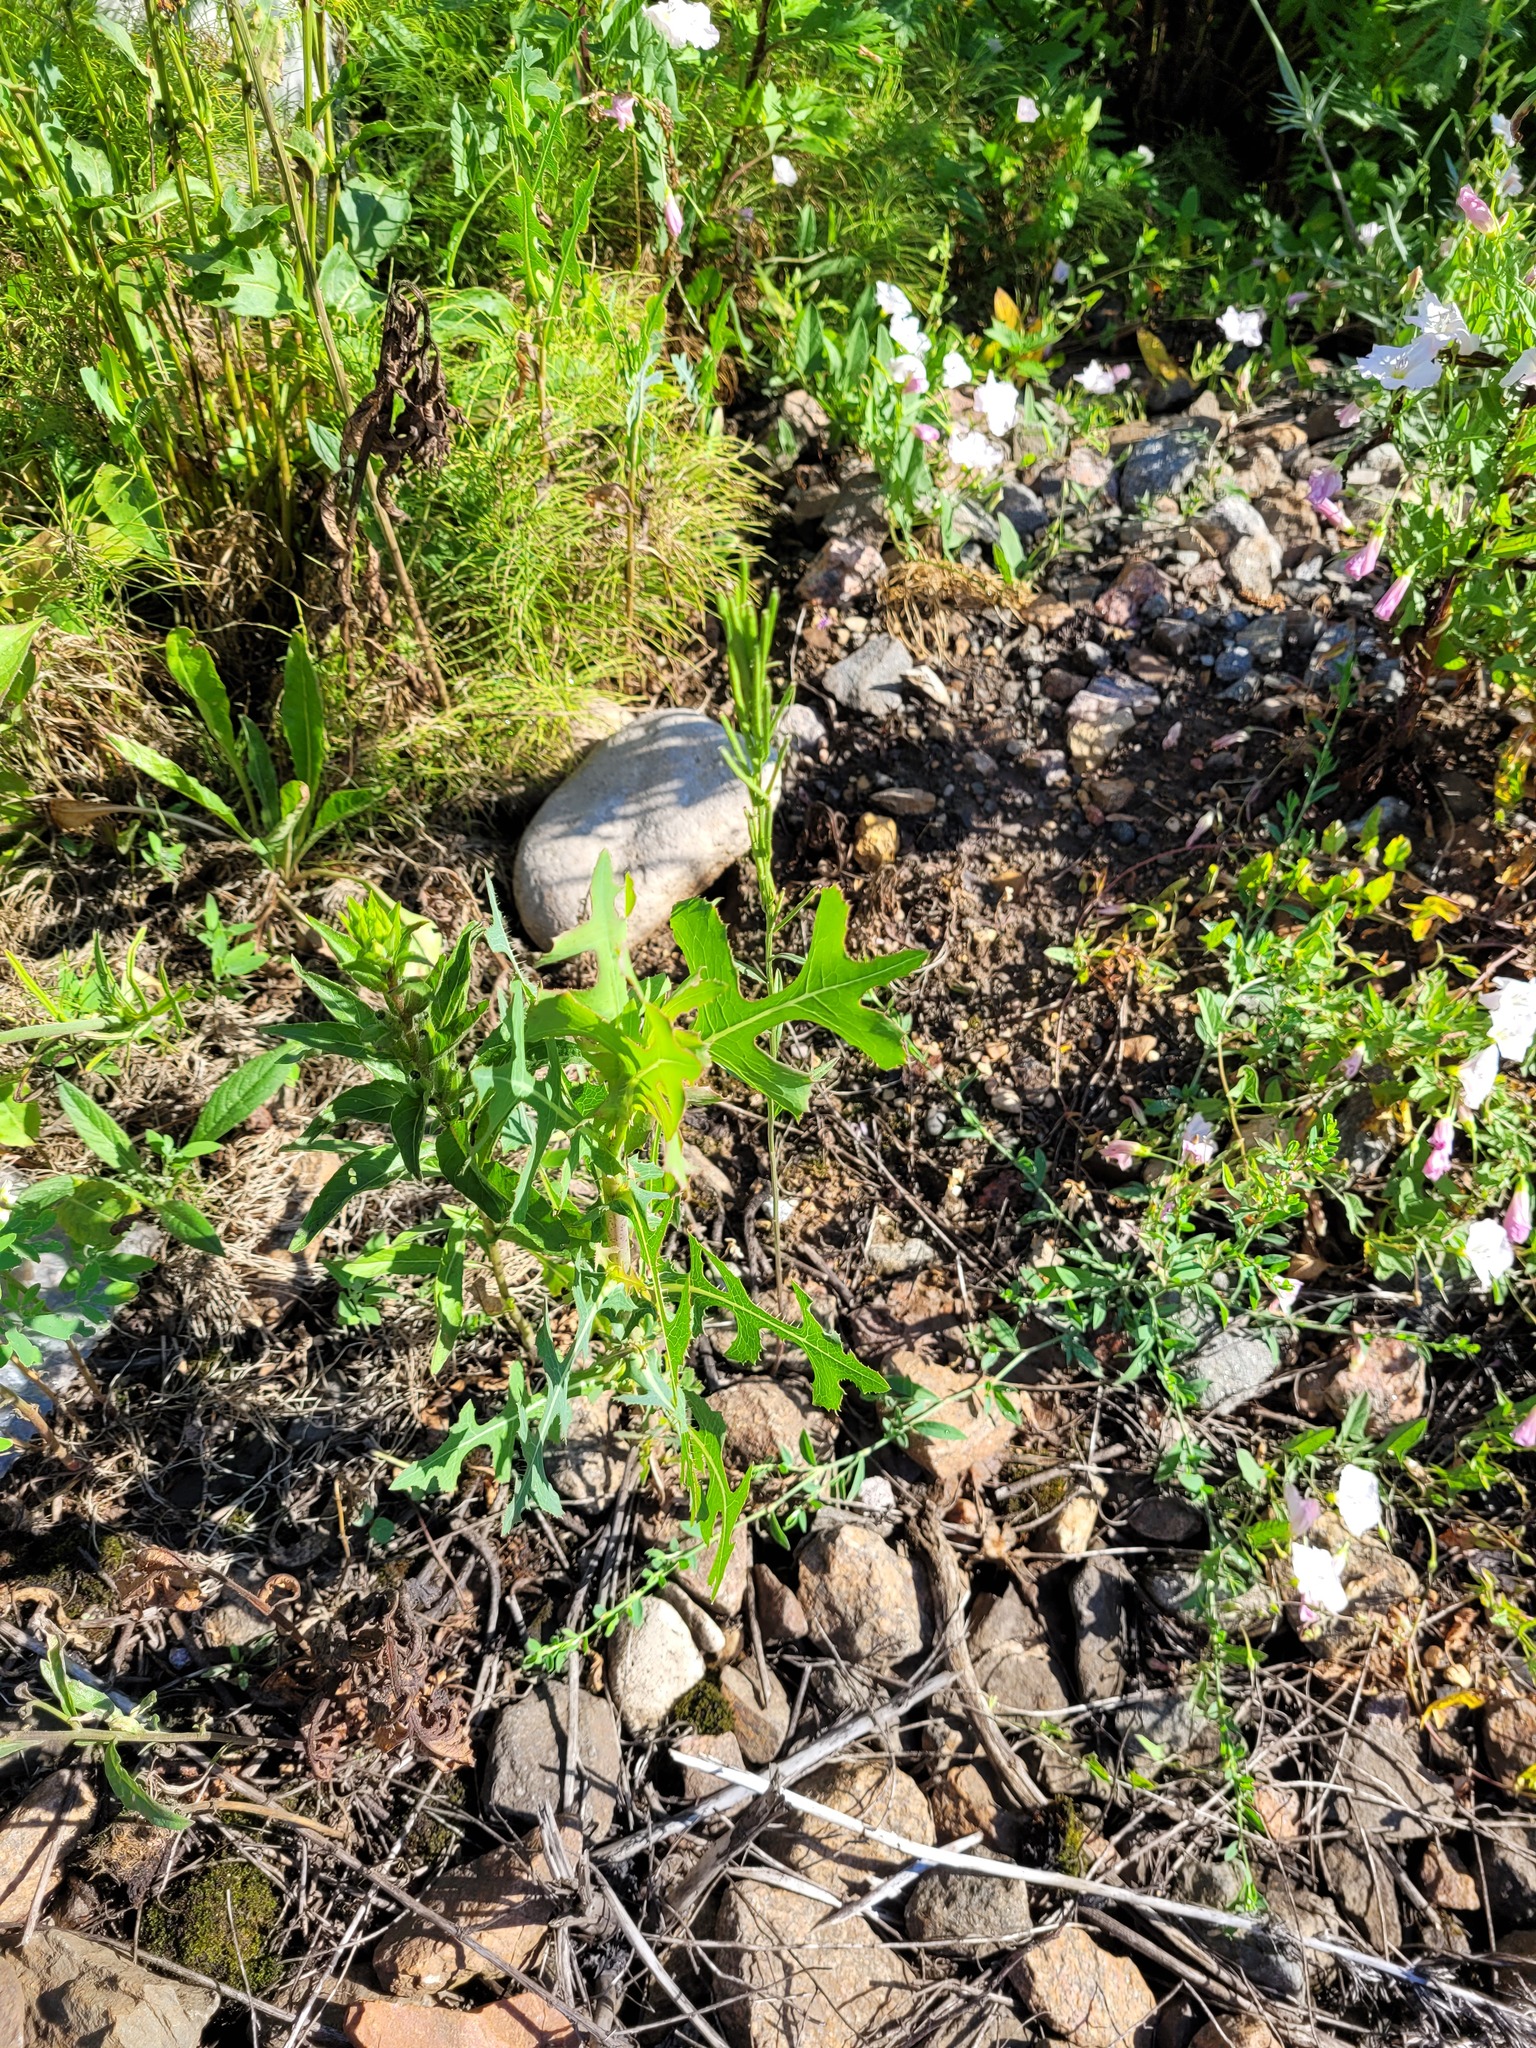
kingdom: Plantae
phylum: Tracheophyta
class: Magnoliopsida
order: Asterales
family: Asteraceae
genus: Lactuca
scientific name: Lactuca serriola
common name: Prickly lettuce
